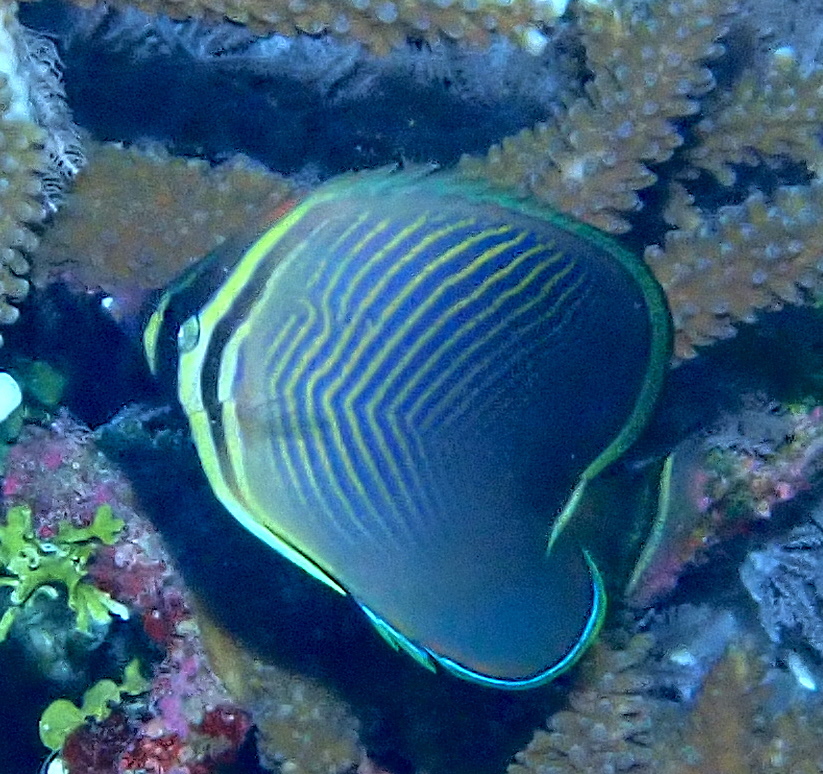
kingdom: Animalia
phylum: Chordata
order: Perciformes
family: Chaetodontidae
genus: Chaetodon
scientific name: Chaetodon baronessa
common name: Triangular butterflyfish
